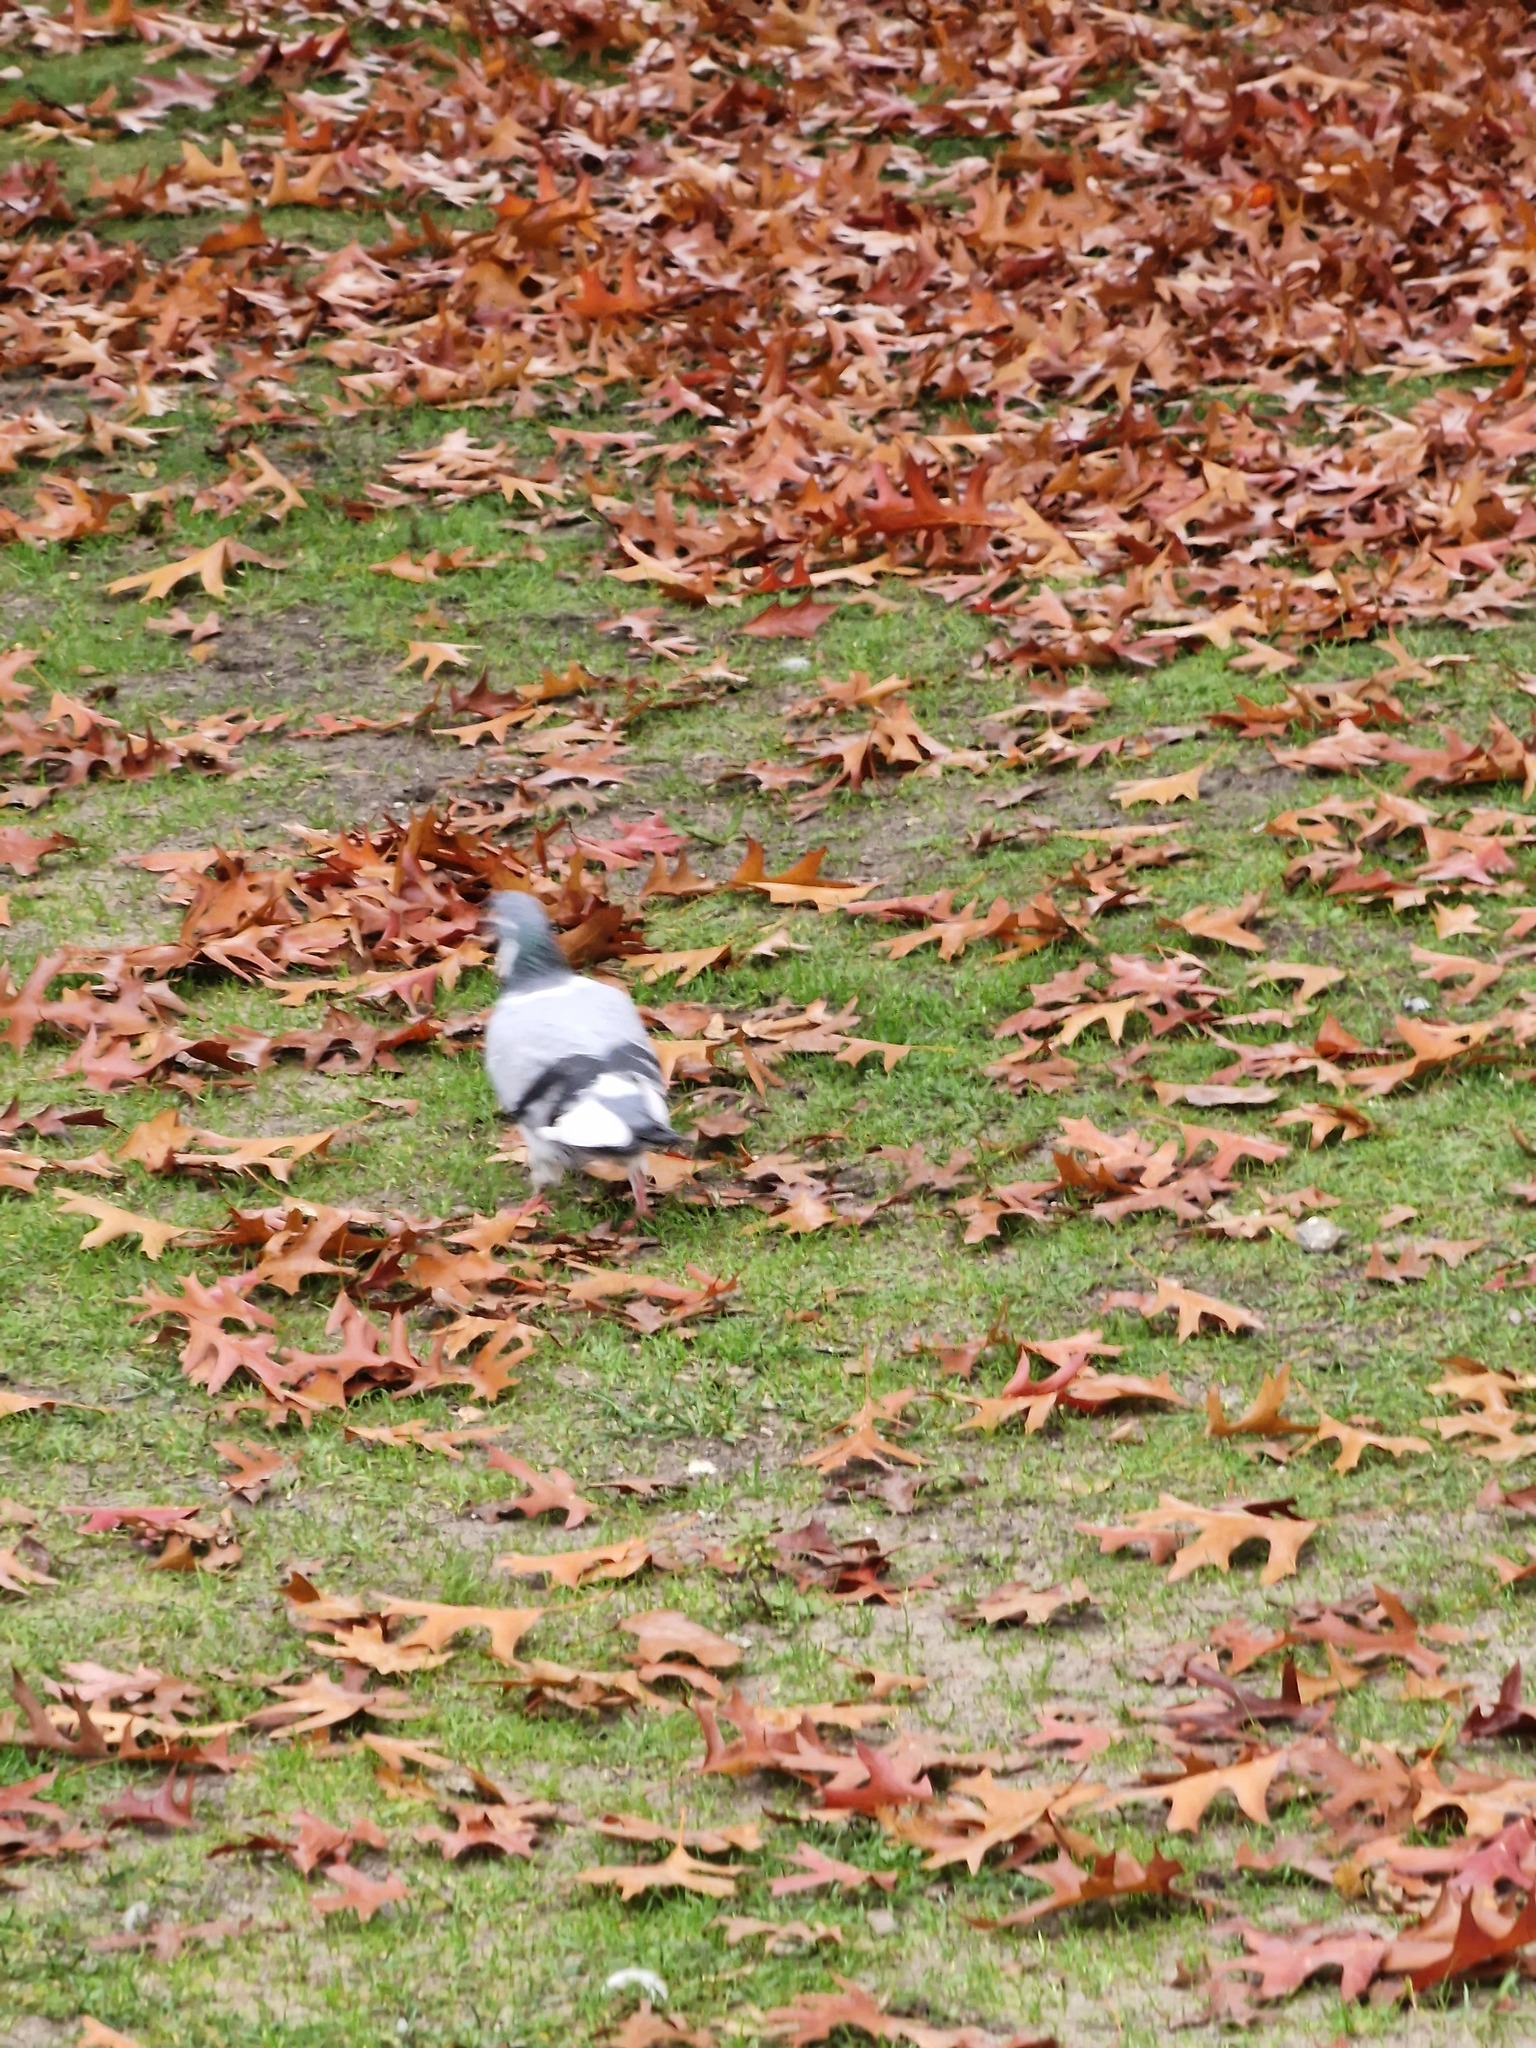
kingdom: Animalia
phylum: Chordata
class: Aves
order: Columbiformes
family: Columbidae
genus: Columba
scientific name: Columba livia
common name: Rock pigeon
